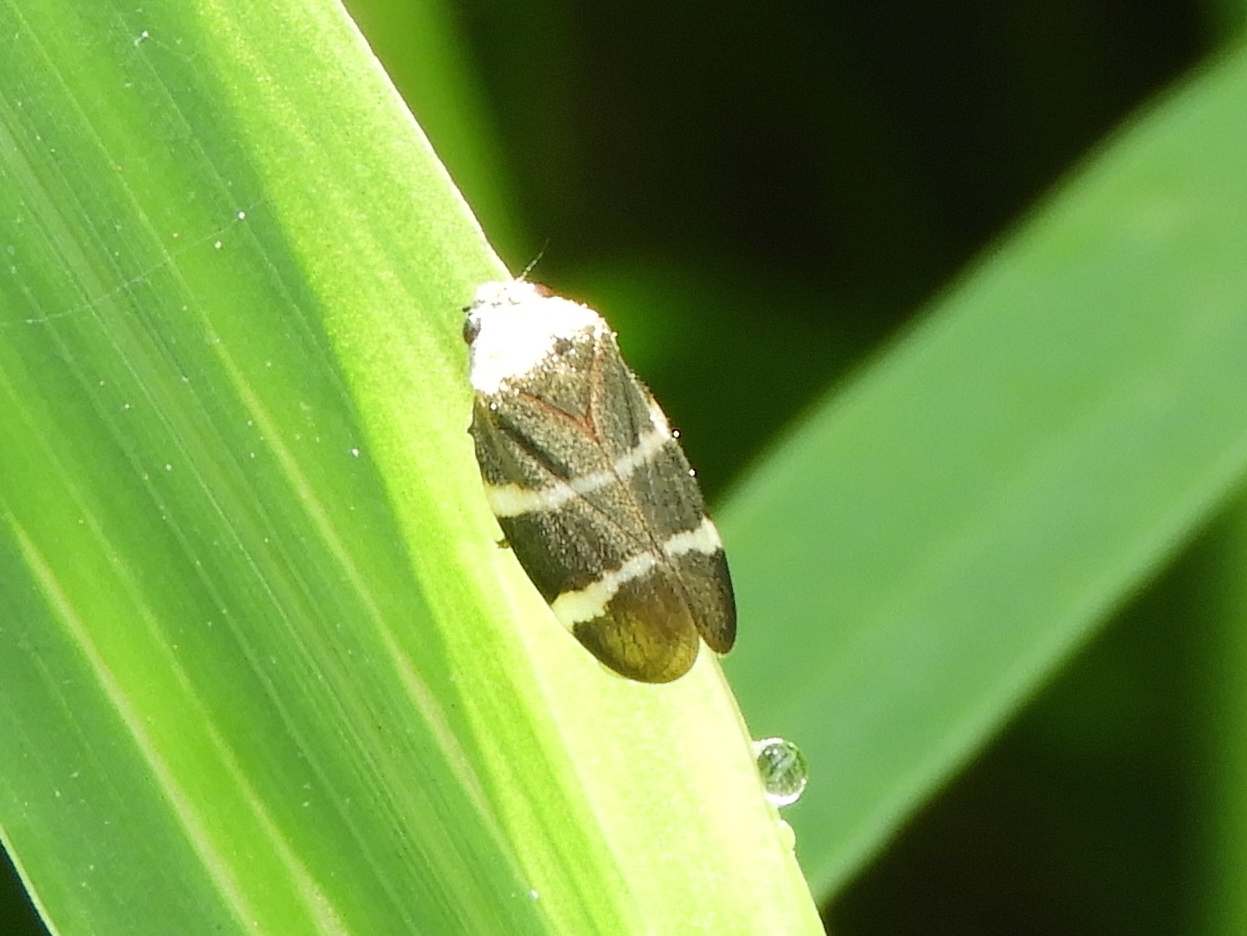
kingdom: Animalia
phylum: Arthropoda
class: Insecta
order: Hemiptera
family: Cercopidae
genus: Aeneolamia
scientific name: Aeneolamia albofasciata
